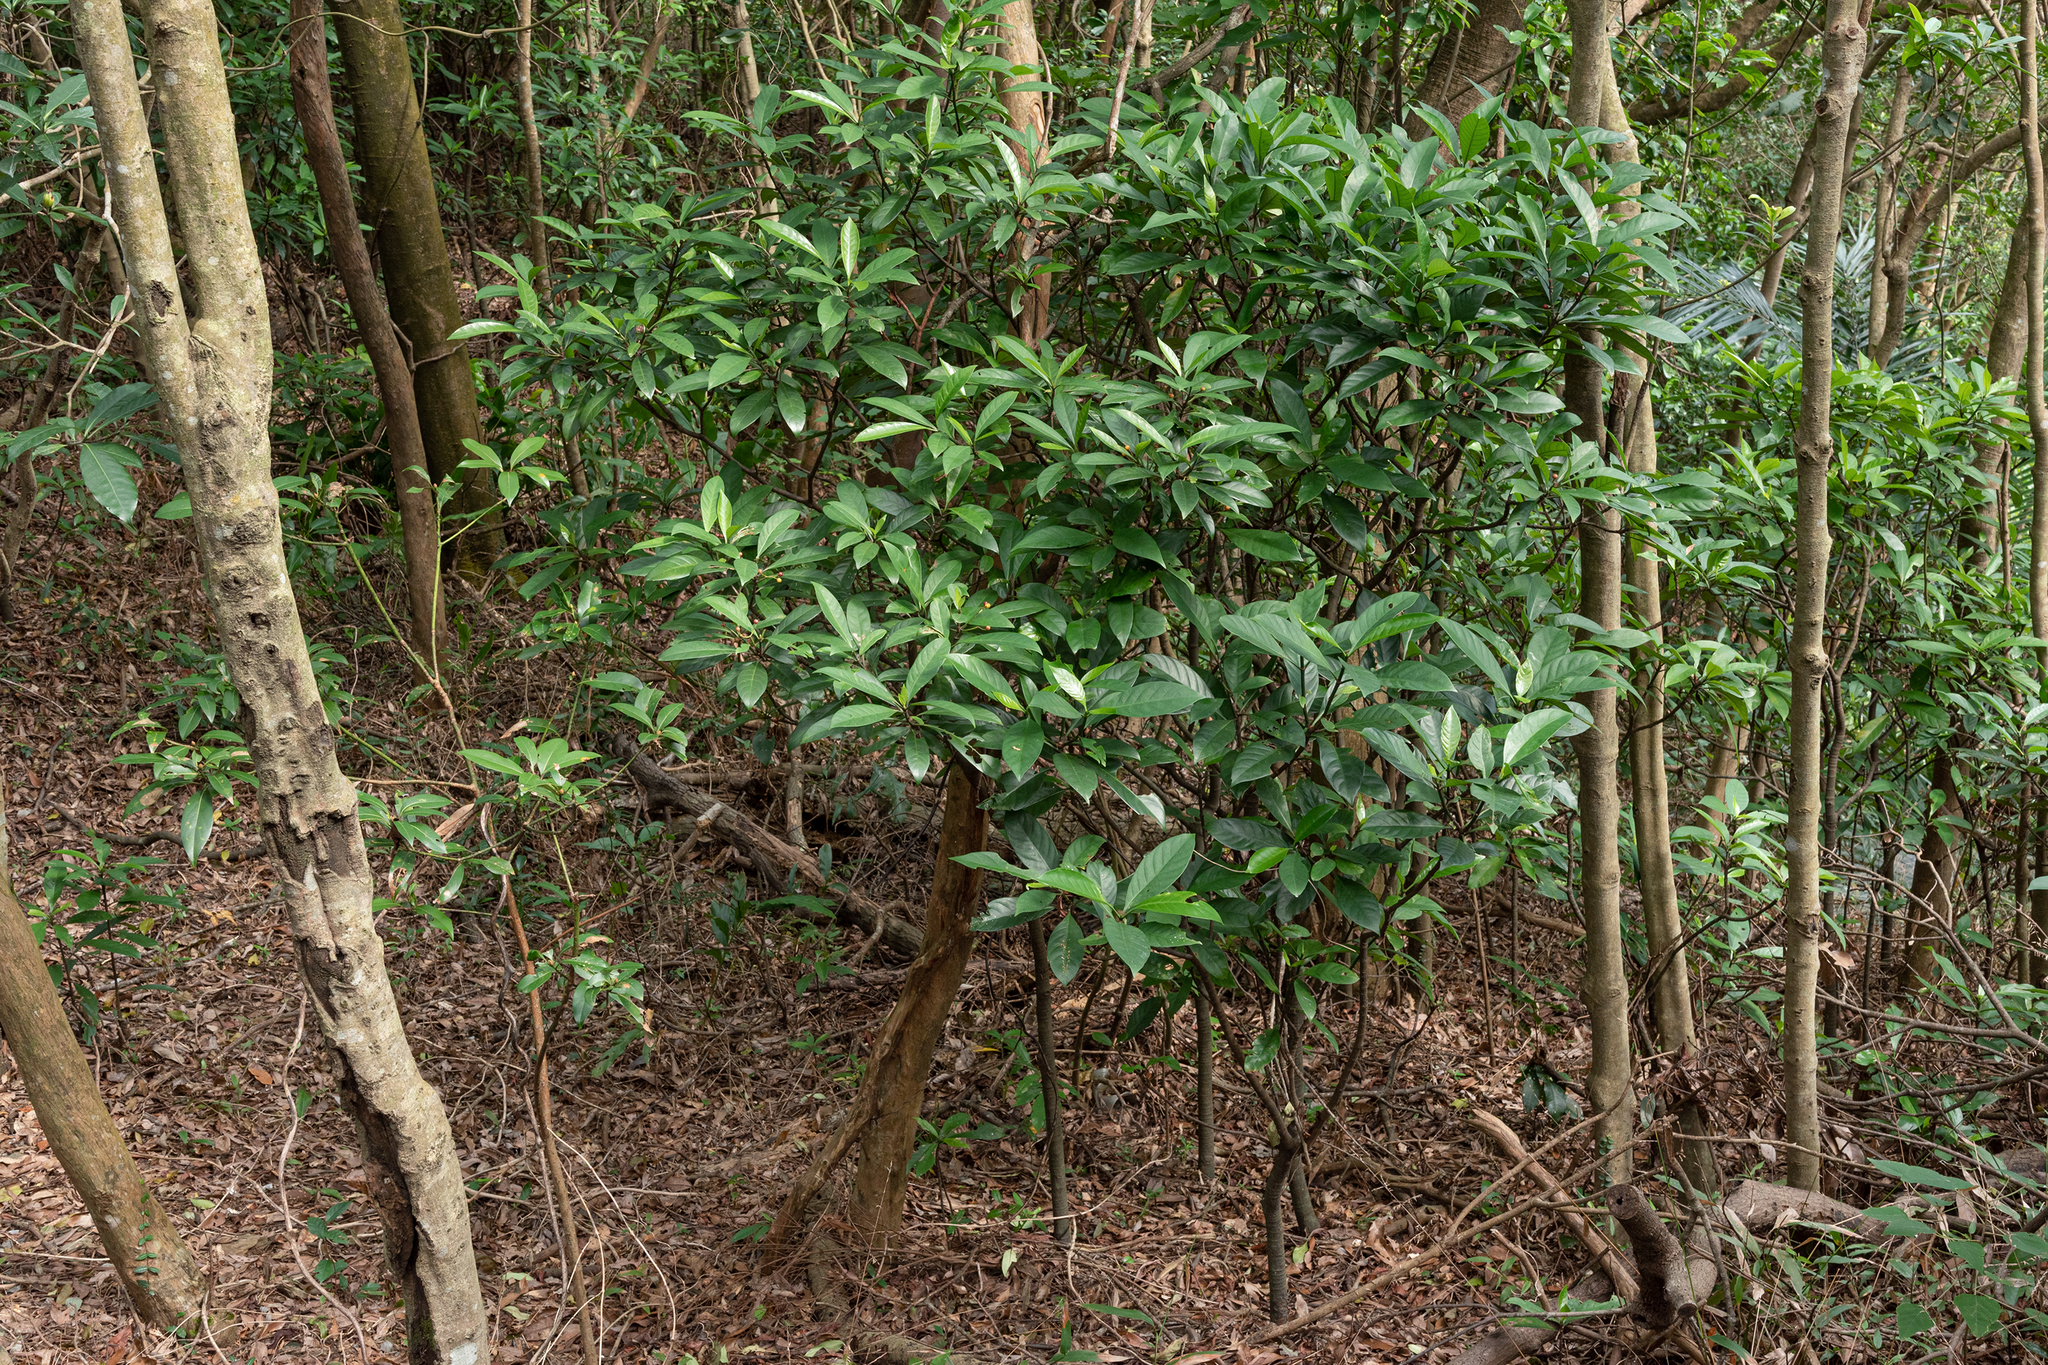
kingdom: Plantae
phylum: Tracheophyta
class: Magnoliopsida
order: Gentianales
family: Rubiaceae
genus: Psychotria
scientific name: Psychotria asiatica
